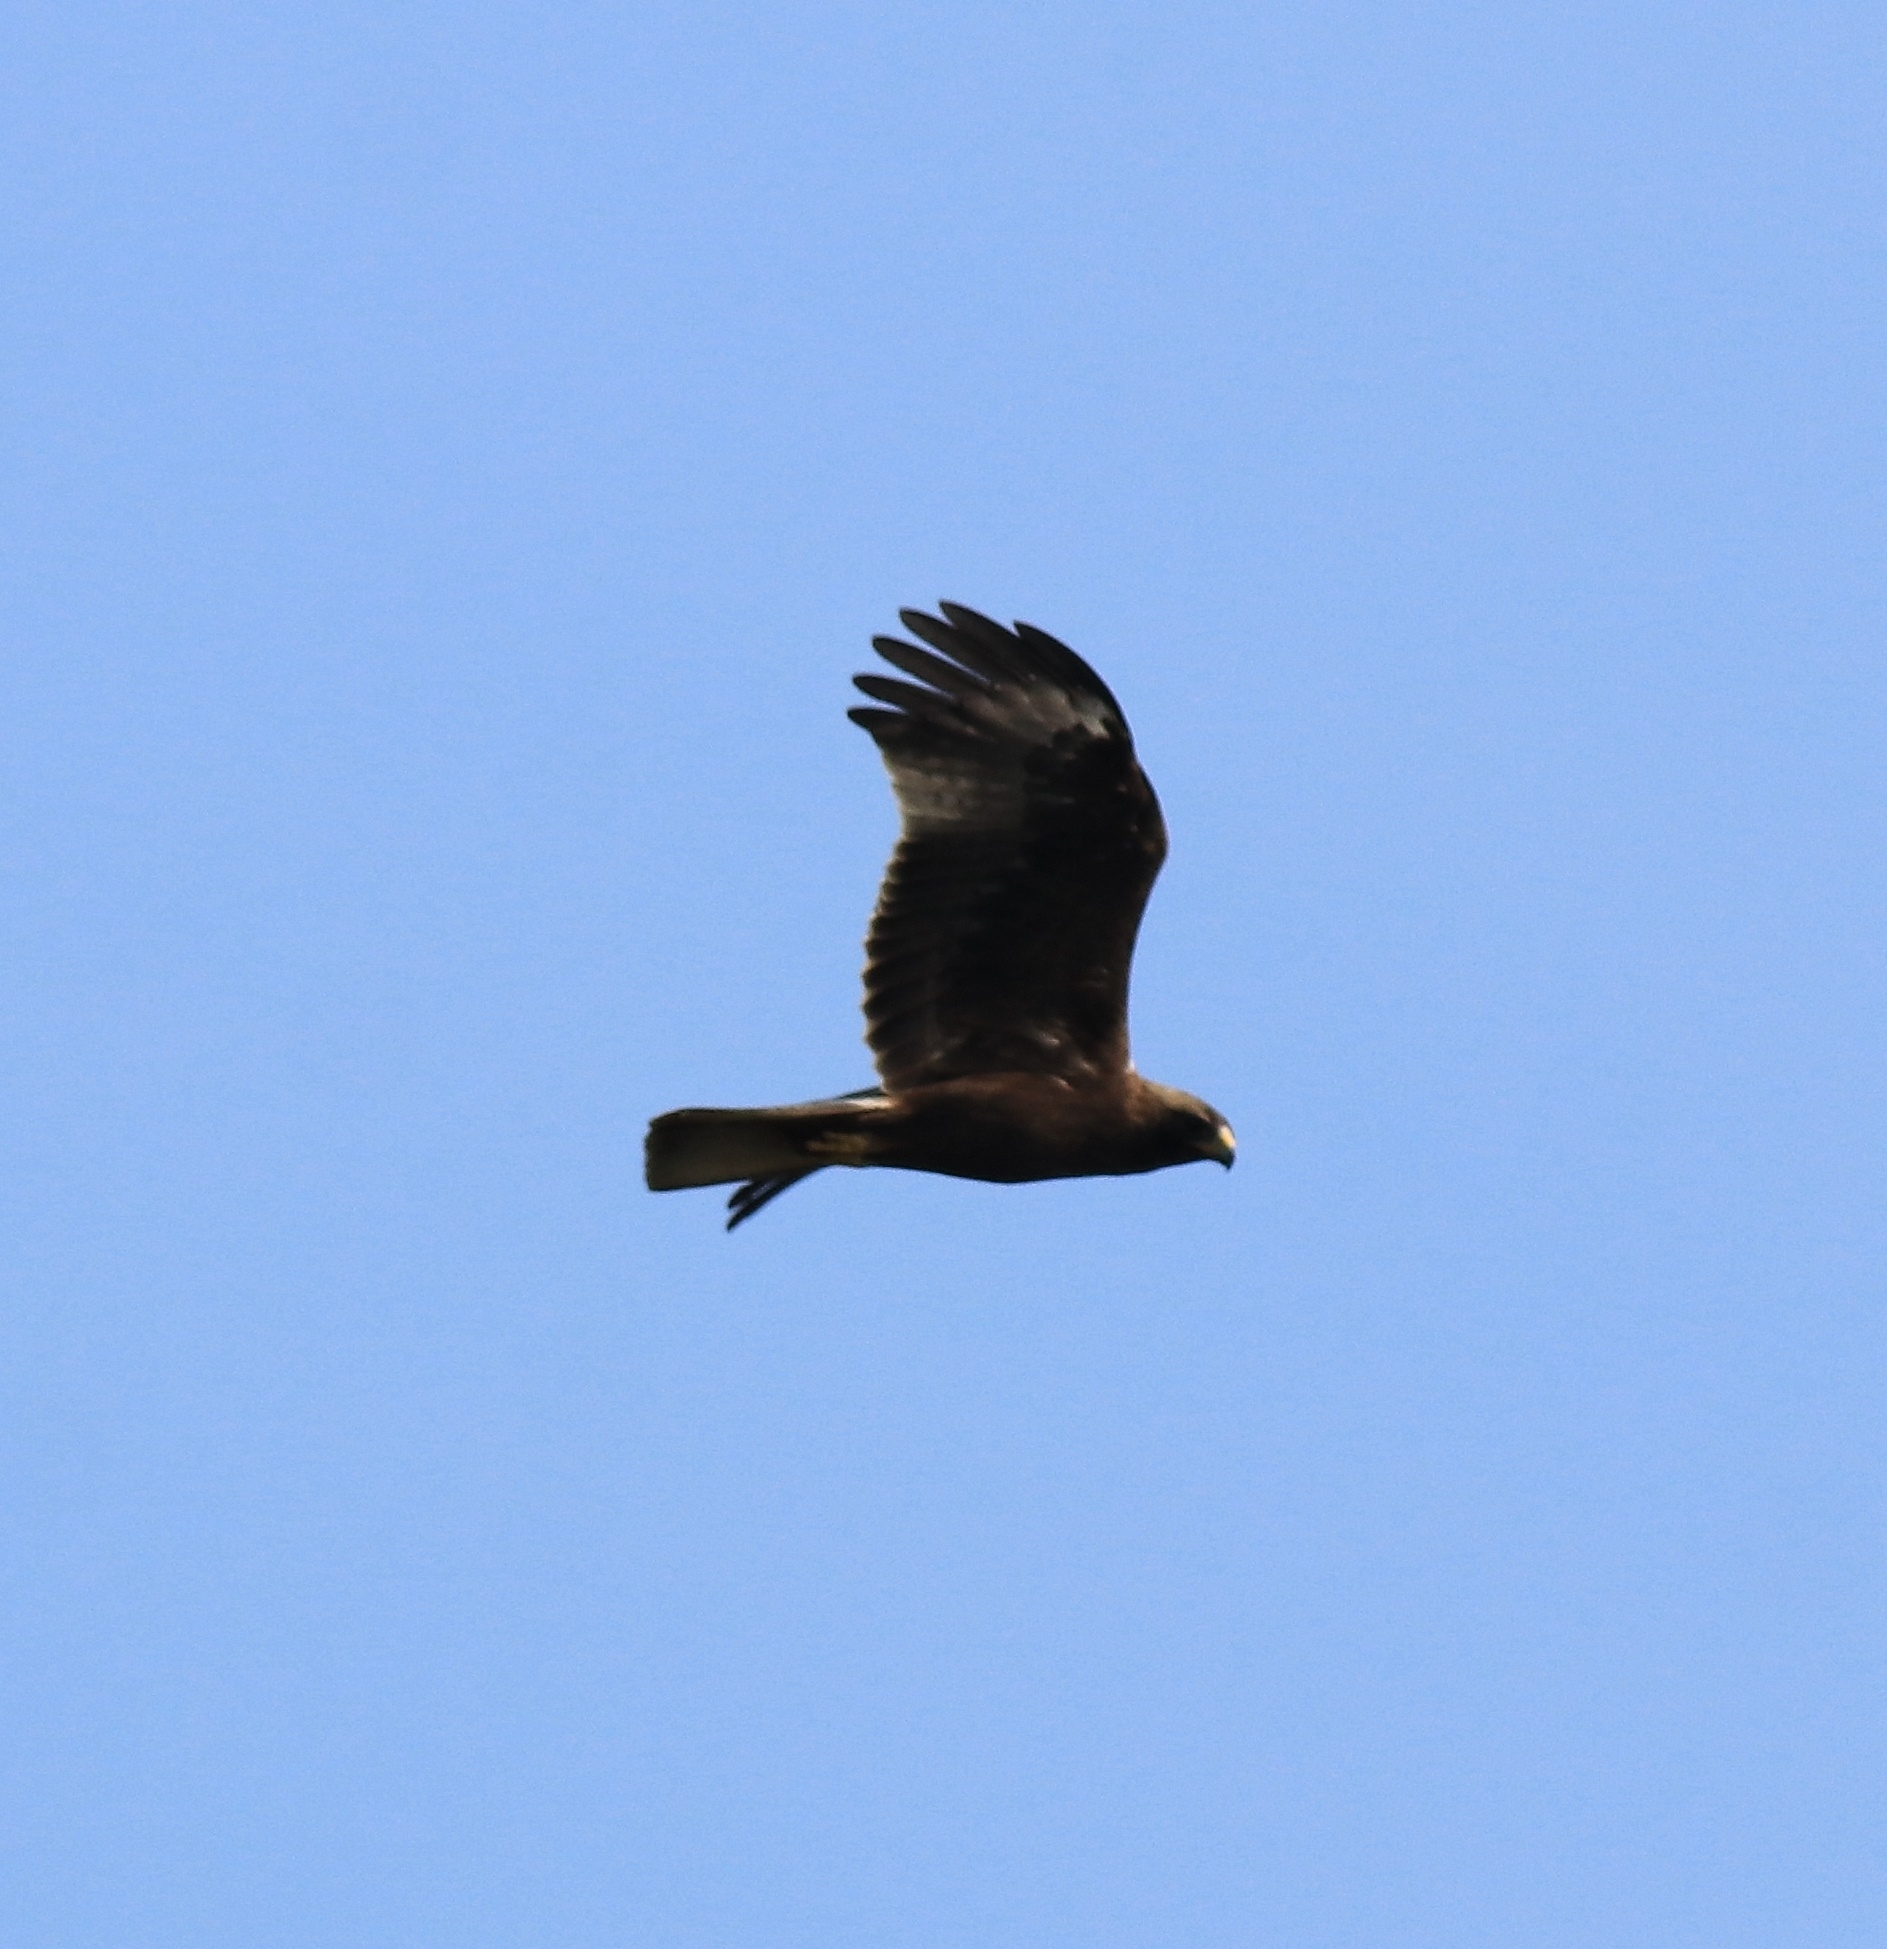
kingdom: Animalia
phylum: Chordata
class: Aves
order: Accipitriformes
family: Accipitridae
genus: Hieraaetus
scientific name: Hieraaetus pennatus
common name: Booted eagle
